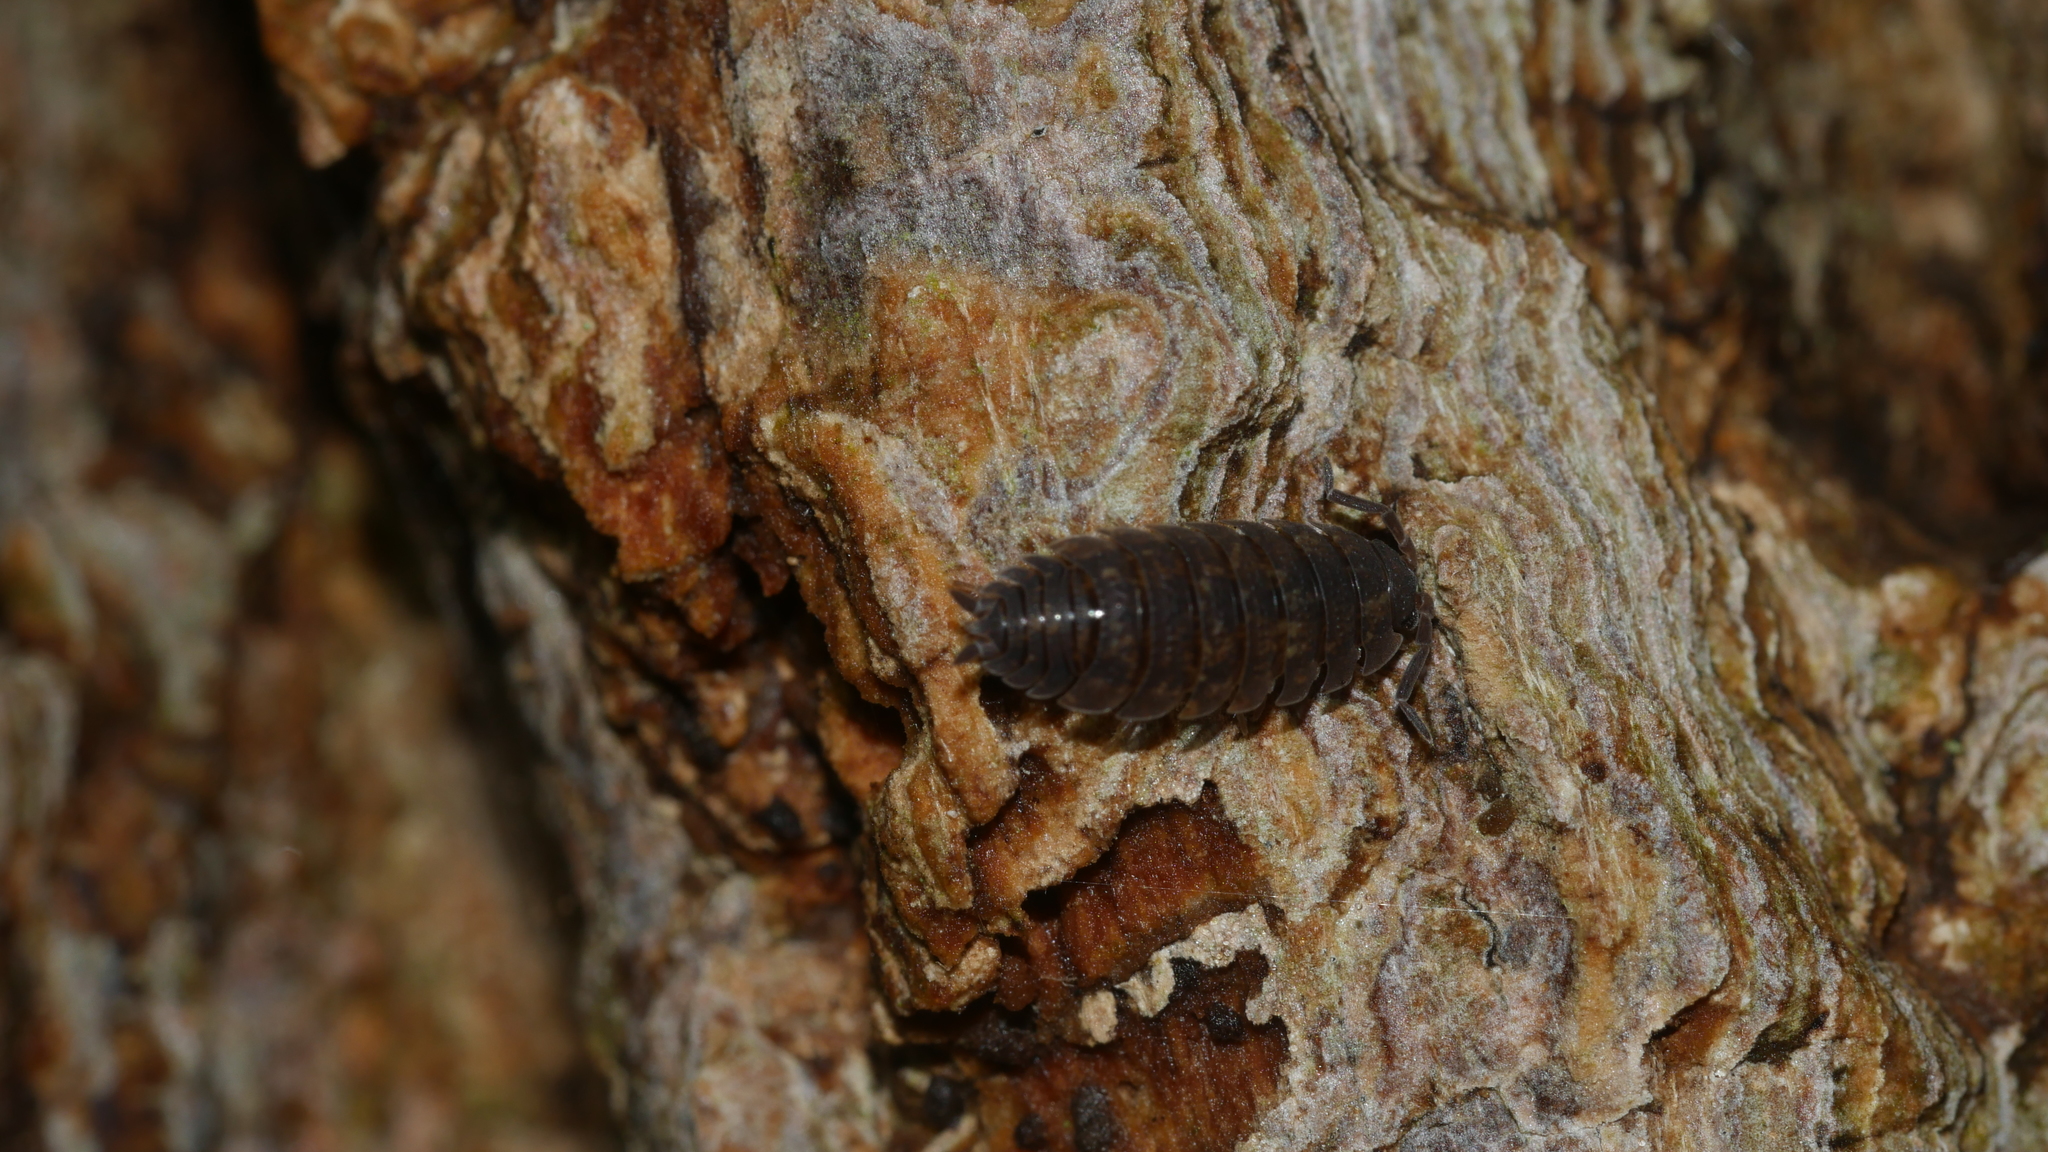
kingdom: Animalia
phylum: Arthropoda
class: Malacostraca
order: Isopoda
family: Porcellionidae
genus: Porcellio
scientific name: Porcellio scaber
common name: Common rough woodlouse
